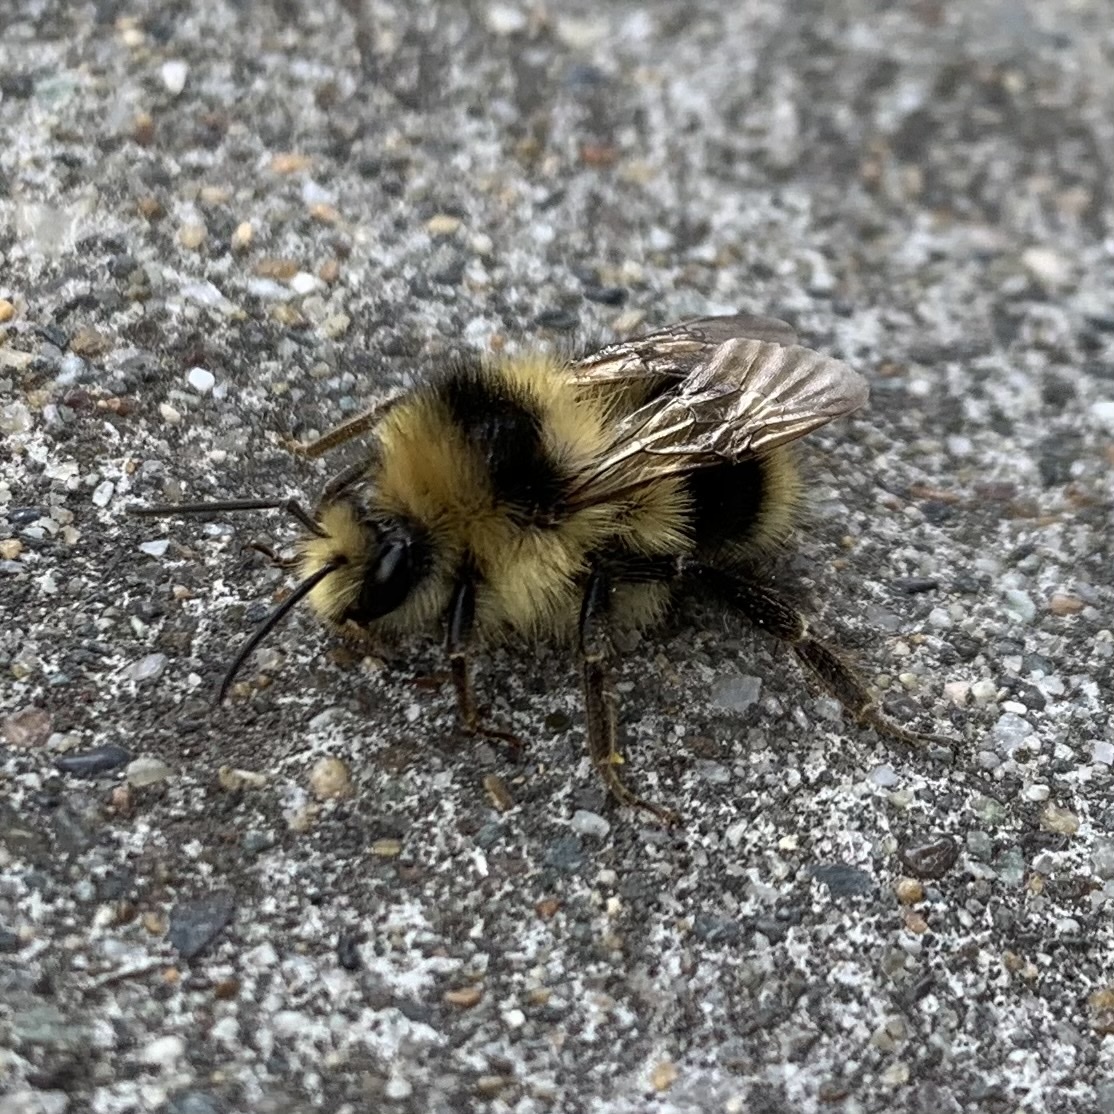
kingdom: Animalia
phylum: Arthropoda
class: Insecta
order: Hymenoptera
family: Apidae
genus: Bombus
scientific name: Bombus melanopygus
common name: Black tail bumble bee
